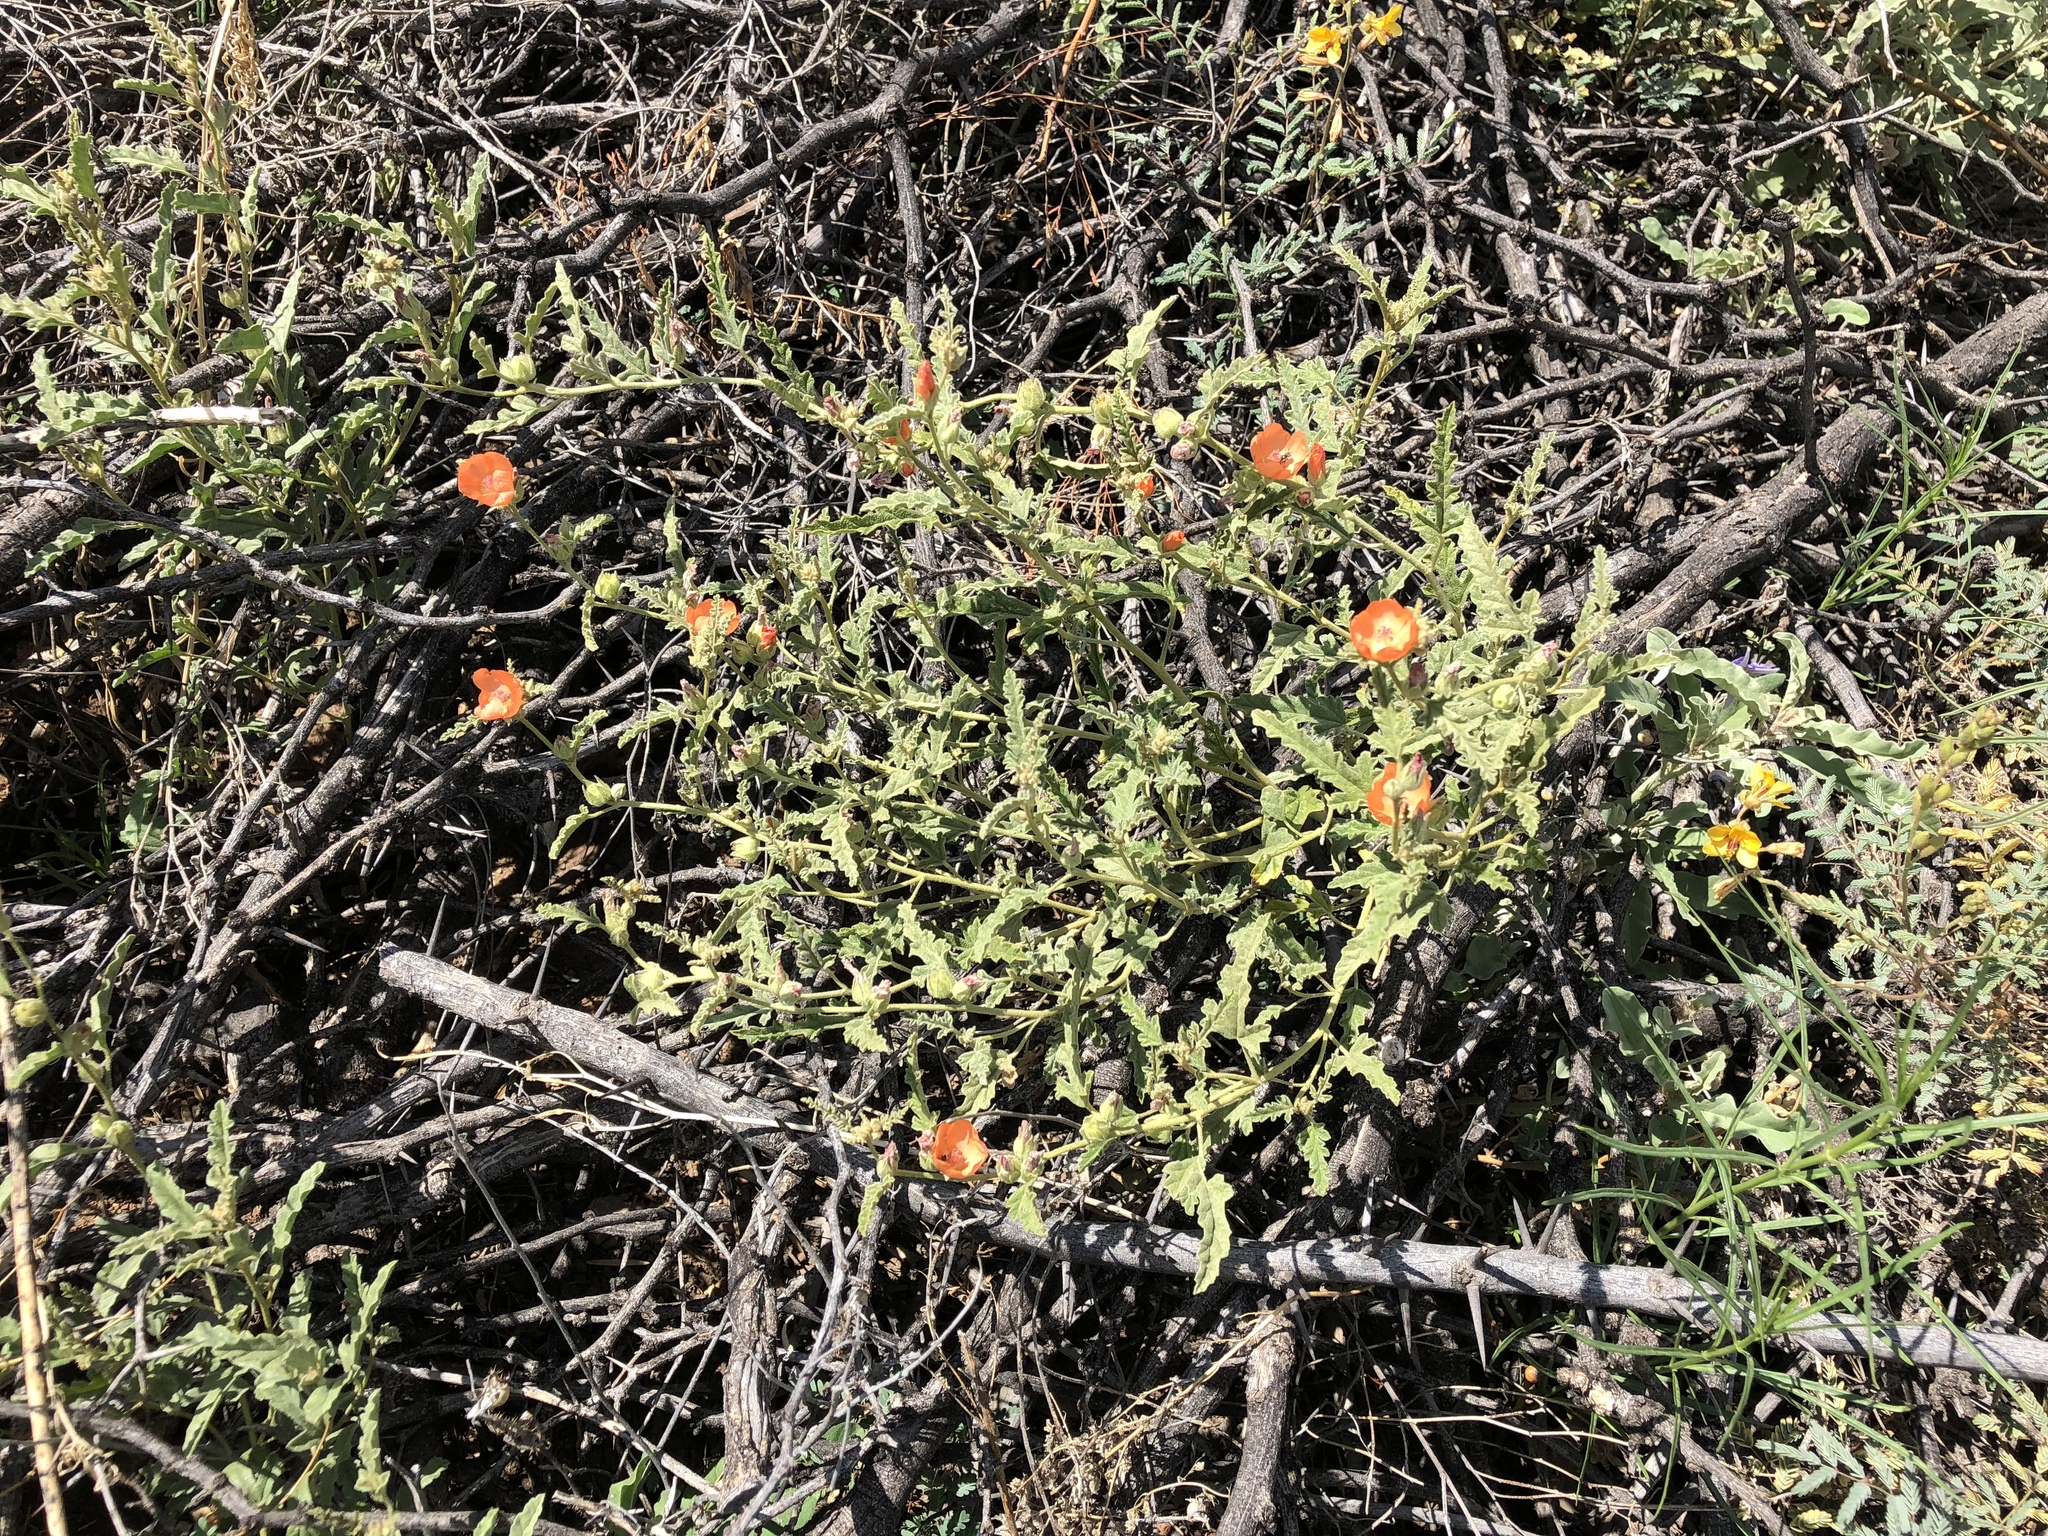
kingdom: Plantae
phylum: Tracheophyta
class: Magnoliopsida
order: Malvales
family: Malvaceae
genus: Sphaeralcea
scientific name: Sphaeralcea hastulata
